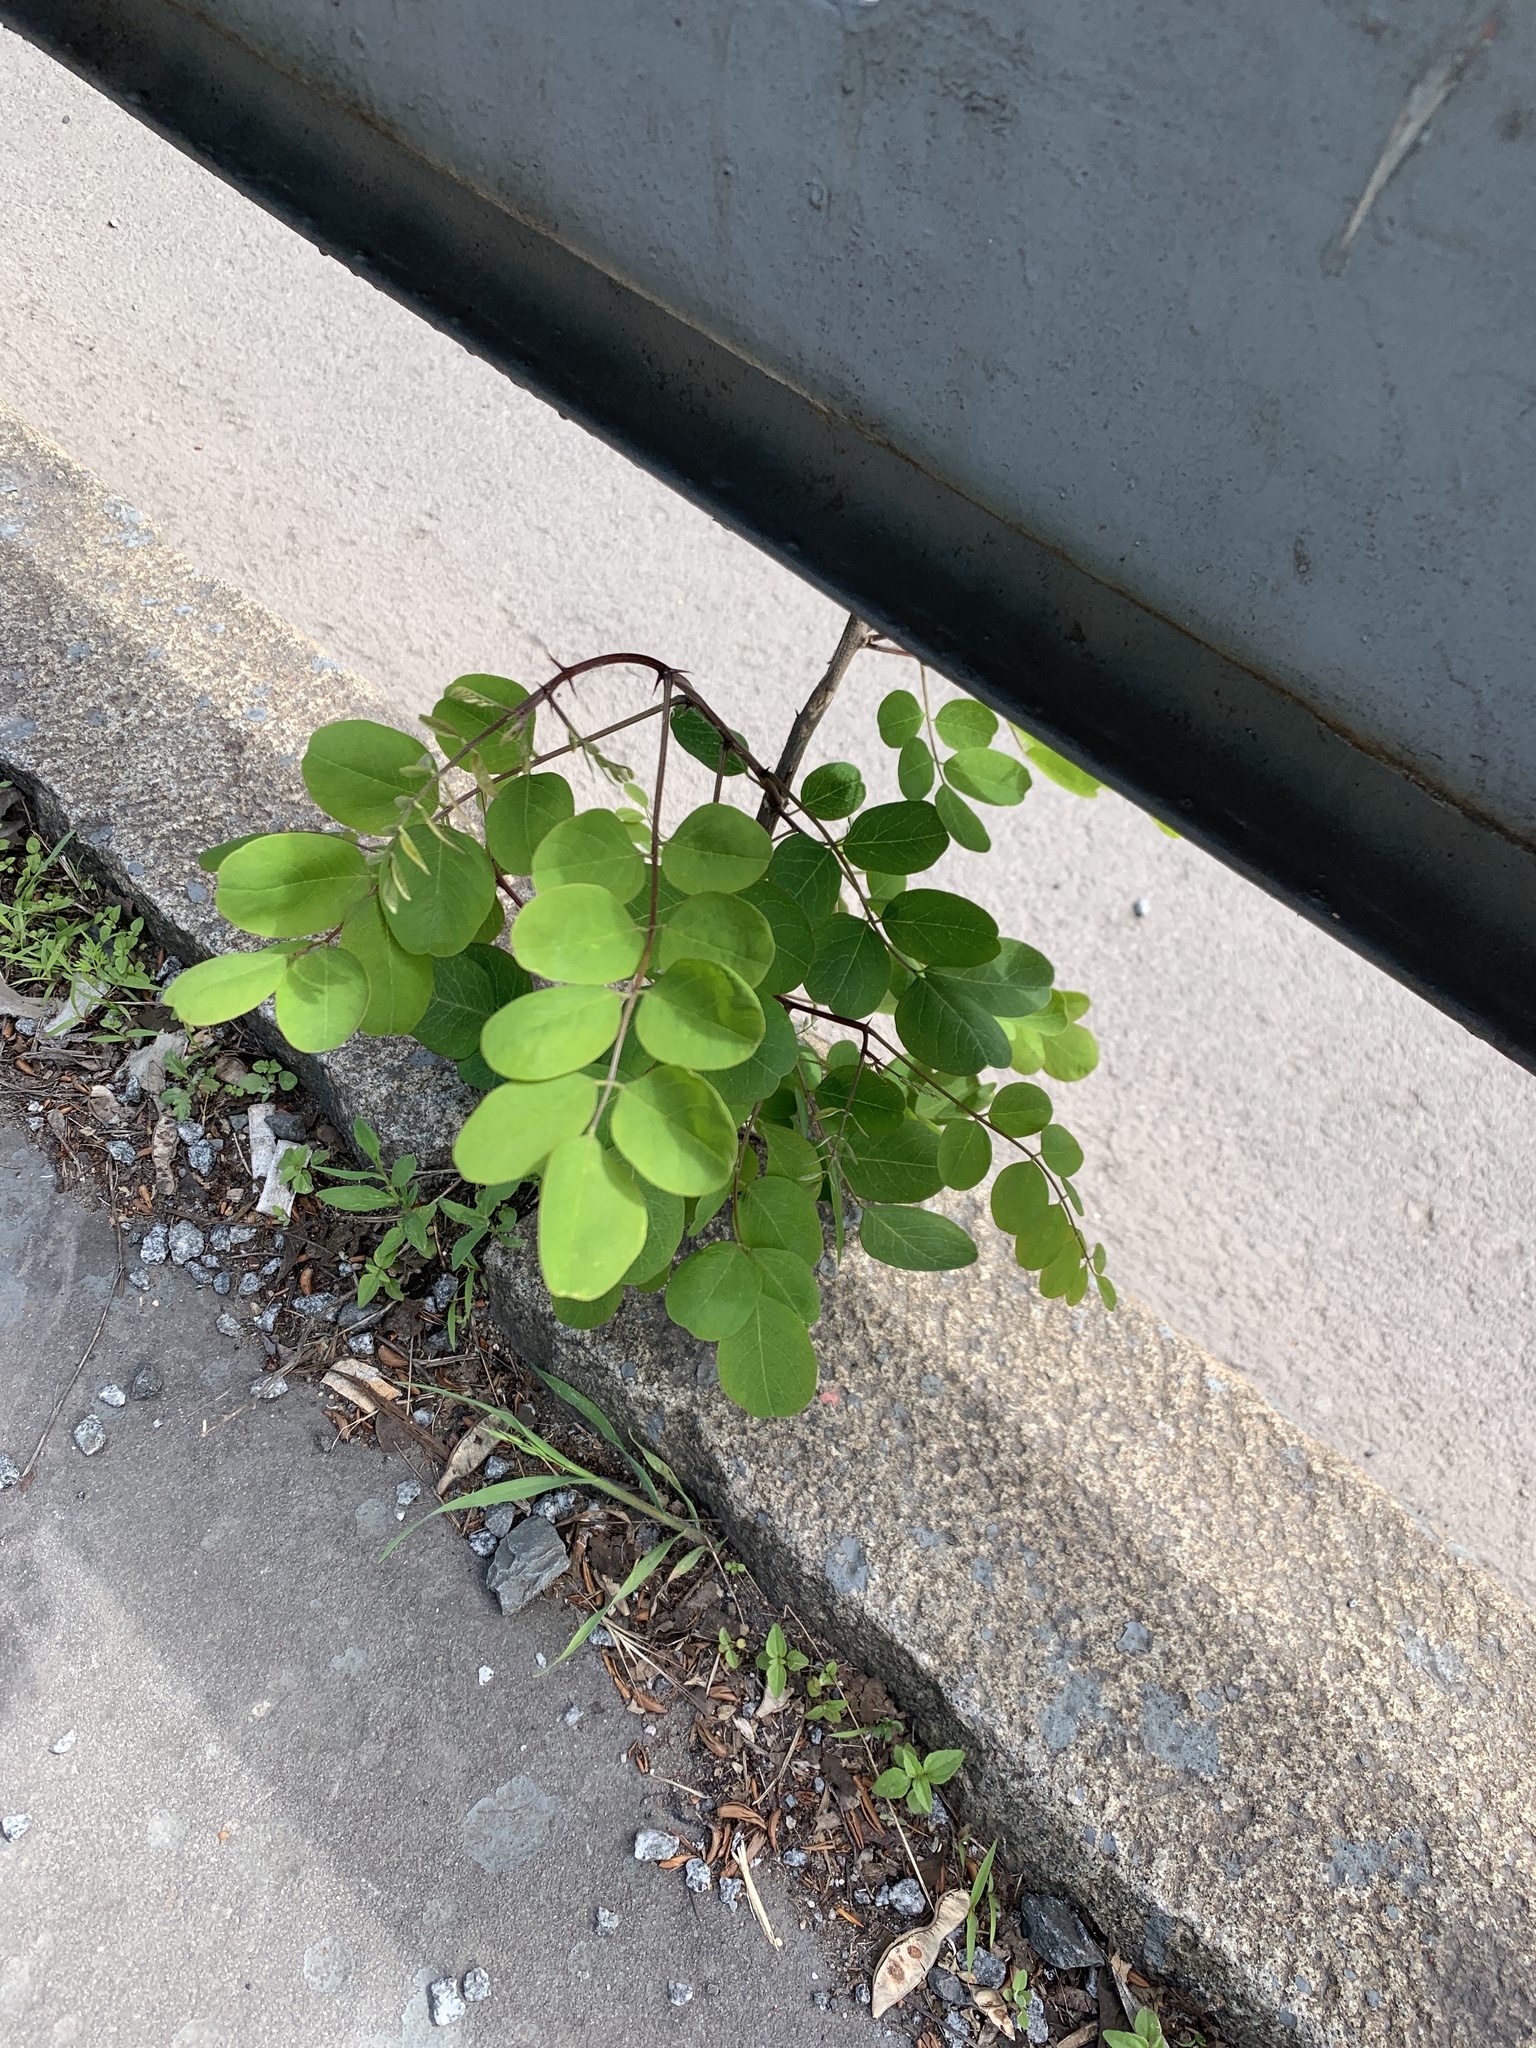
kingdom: Plantae
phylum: Tracheophyta
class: Magnoliopsida
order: Fabales
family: Fabaceae
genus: Robinia
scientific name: Robinia pseudoacacia
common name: Black locust
